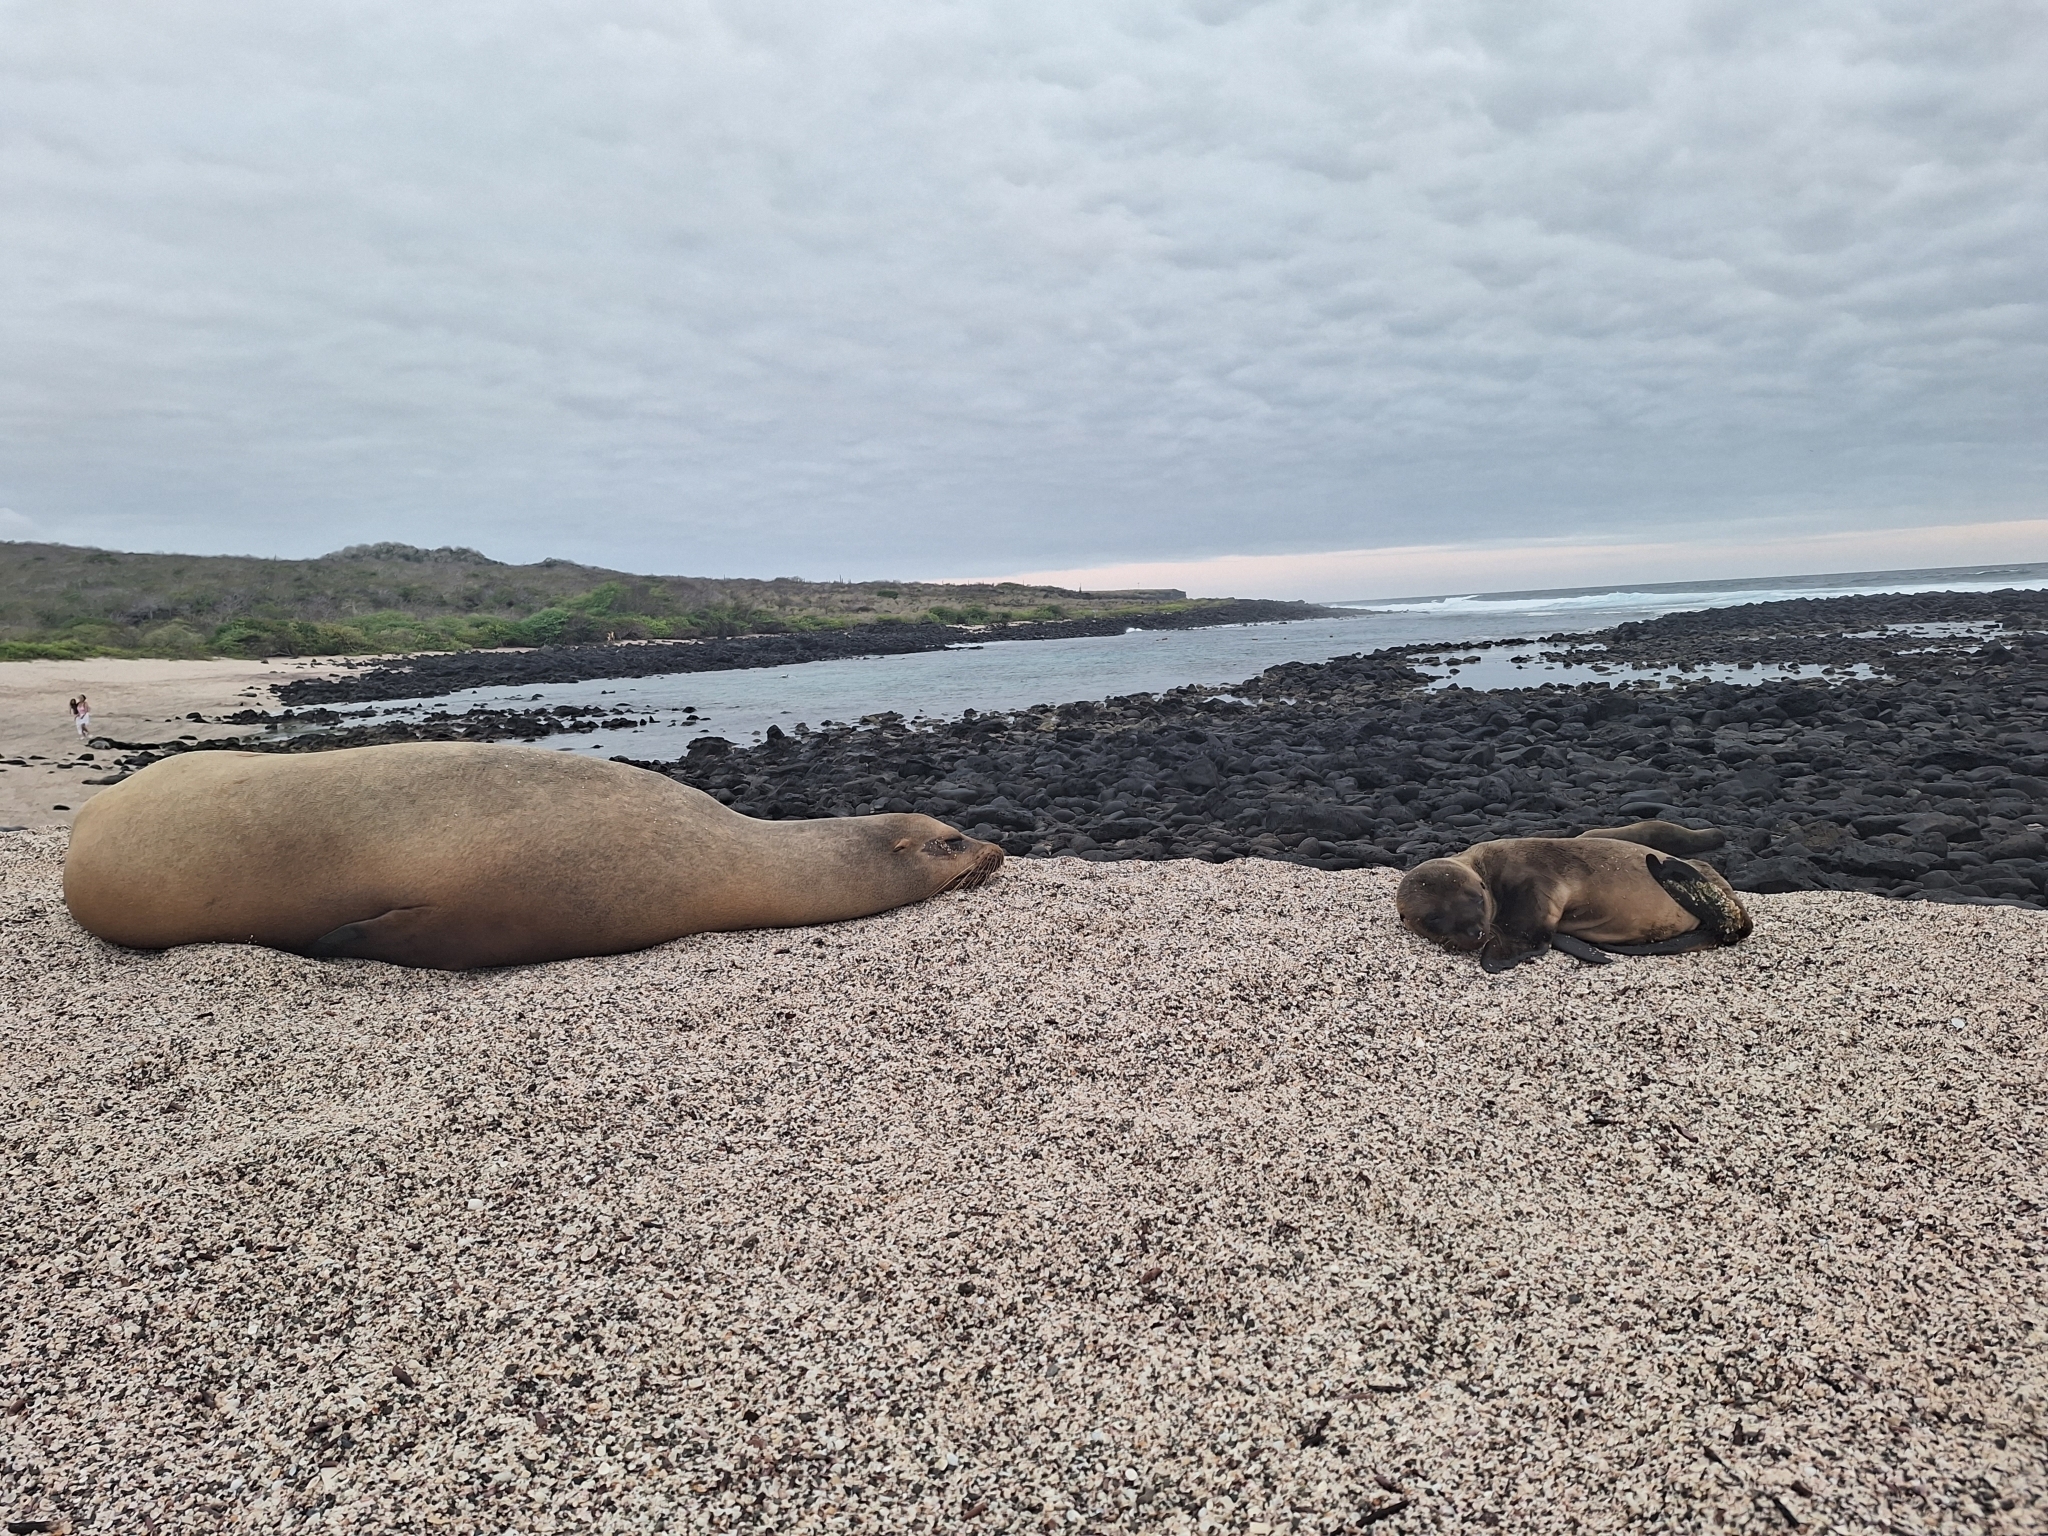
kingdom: Animalia
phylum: Chordata
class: Mammalia
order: Carnivora
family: Otariidae
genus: Zalophus
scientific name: Zalophus wollebaeki
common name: Galapagos sea lion
